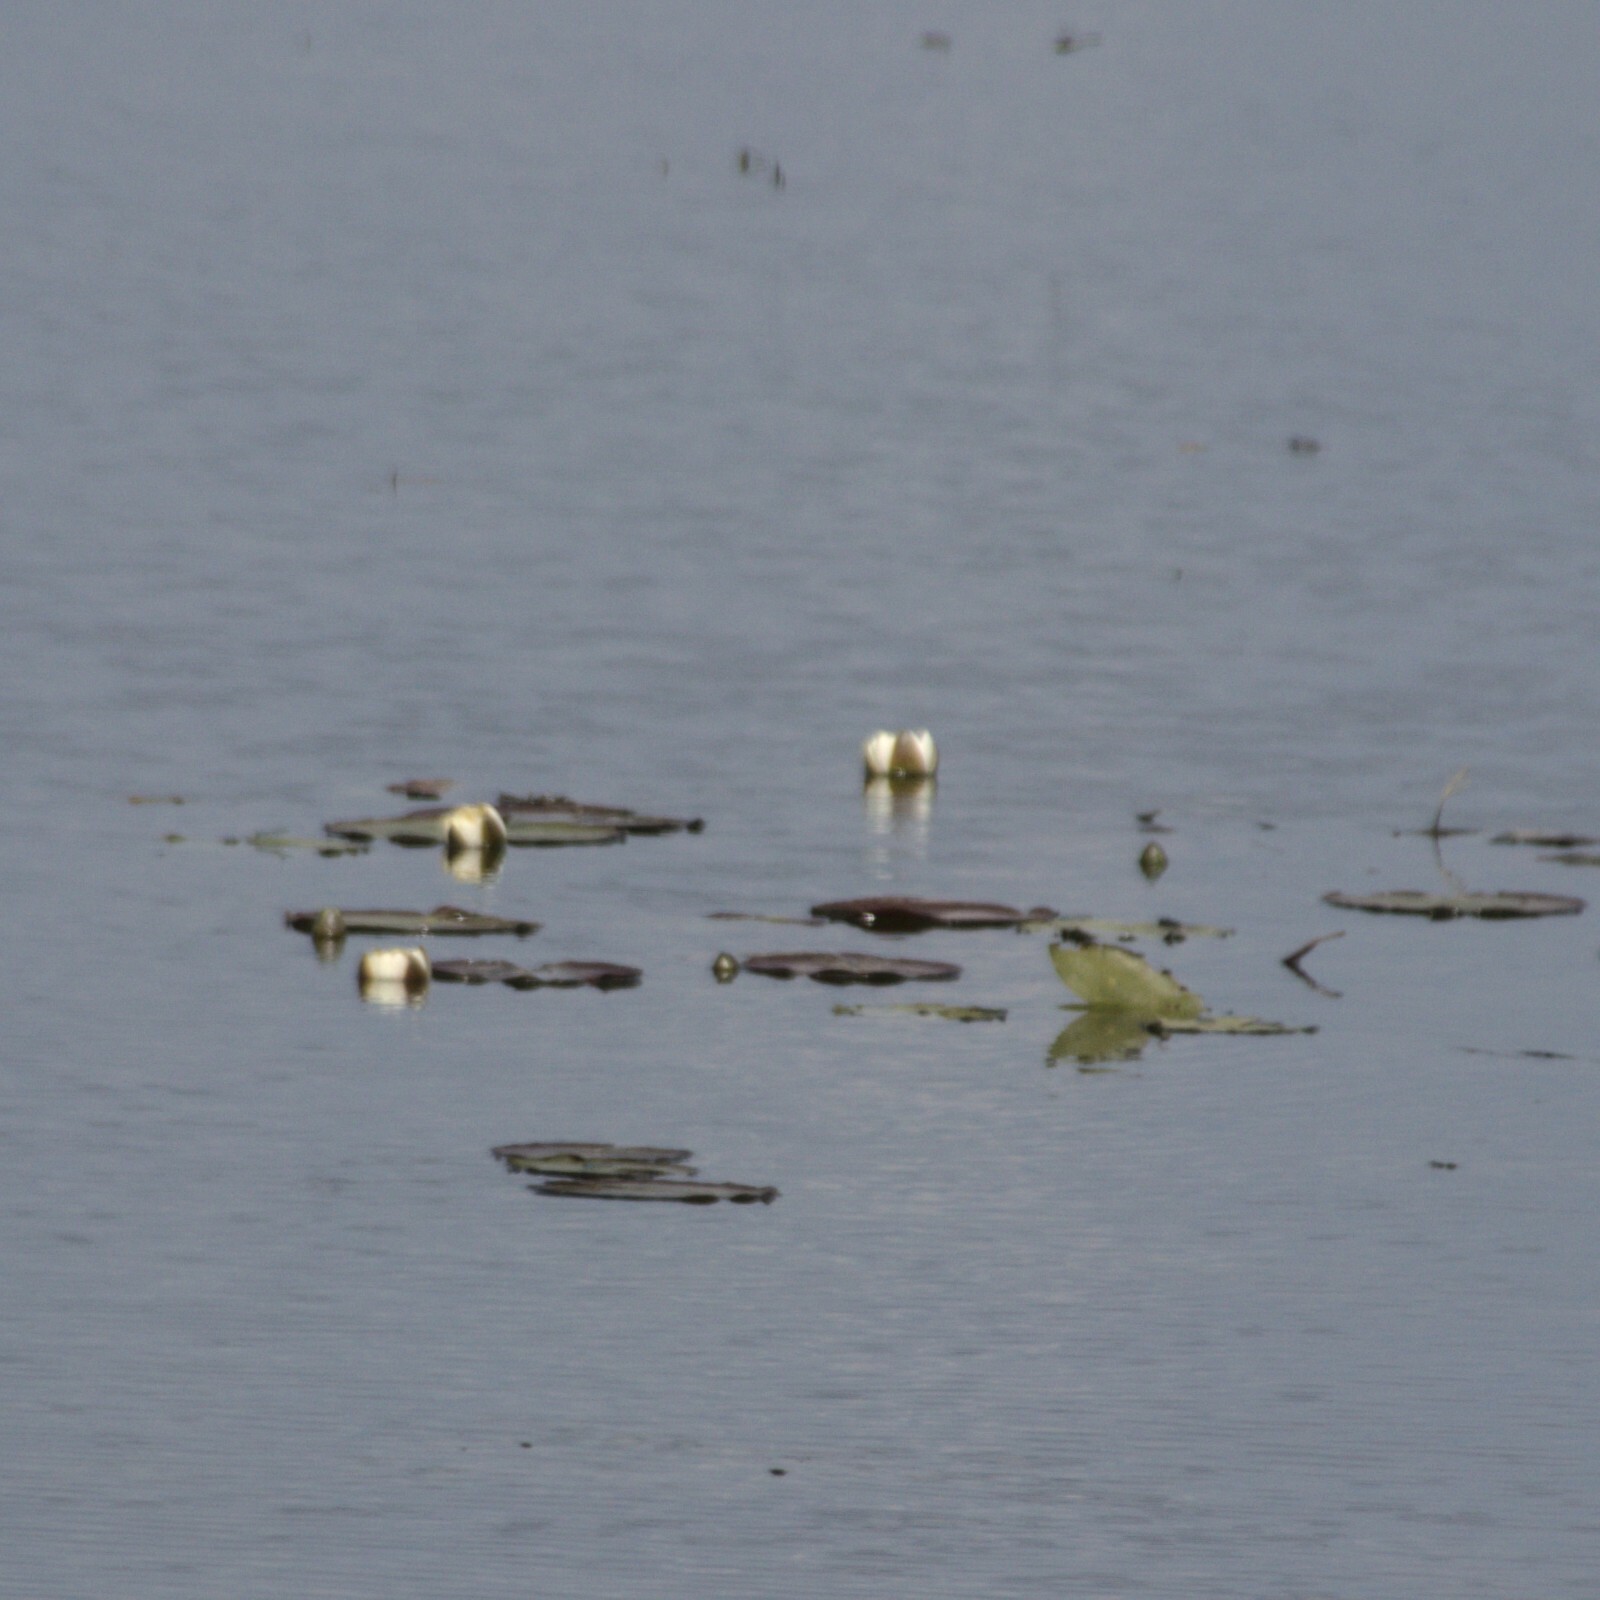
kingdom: Plantae
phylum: Tracheophyta
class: Magnoliopsida
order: Nymphaeales
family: Nymphaeaceae
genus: Nymphaea
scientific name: Nymphaea candida
